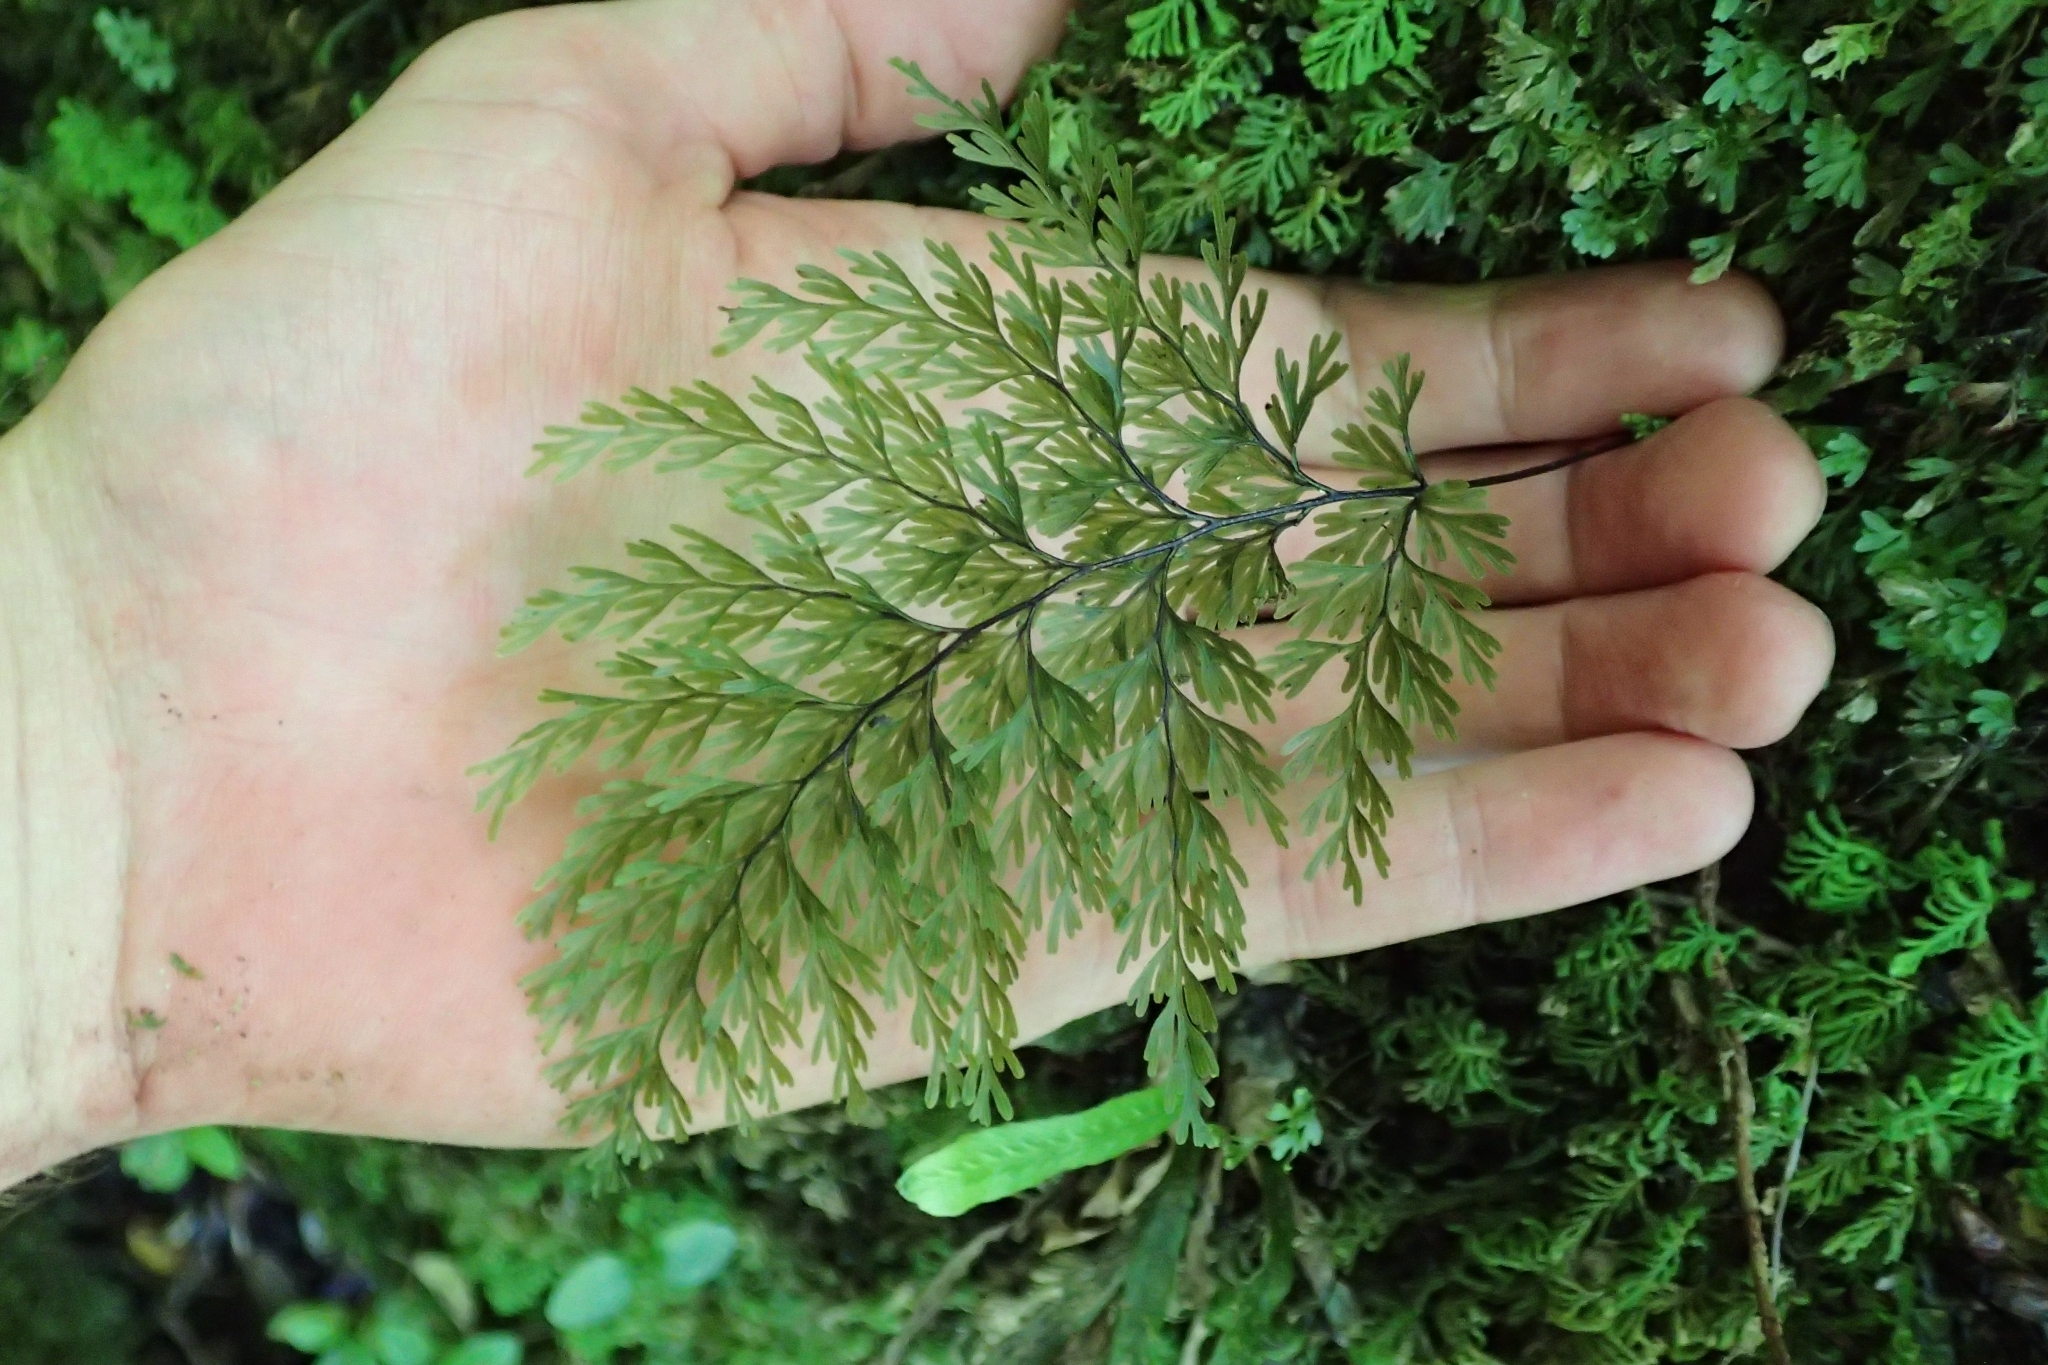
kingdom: Plantae
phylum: Tracheophyta
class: Polypodiopsida
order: Hymenophyllales
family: Hymenophyllaceae
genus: Hymenophyllum
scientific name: Hymenophyllum demissum
